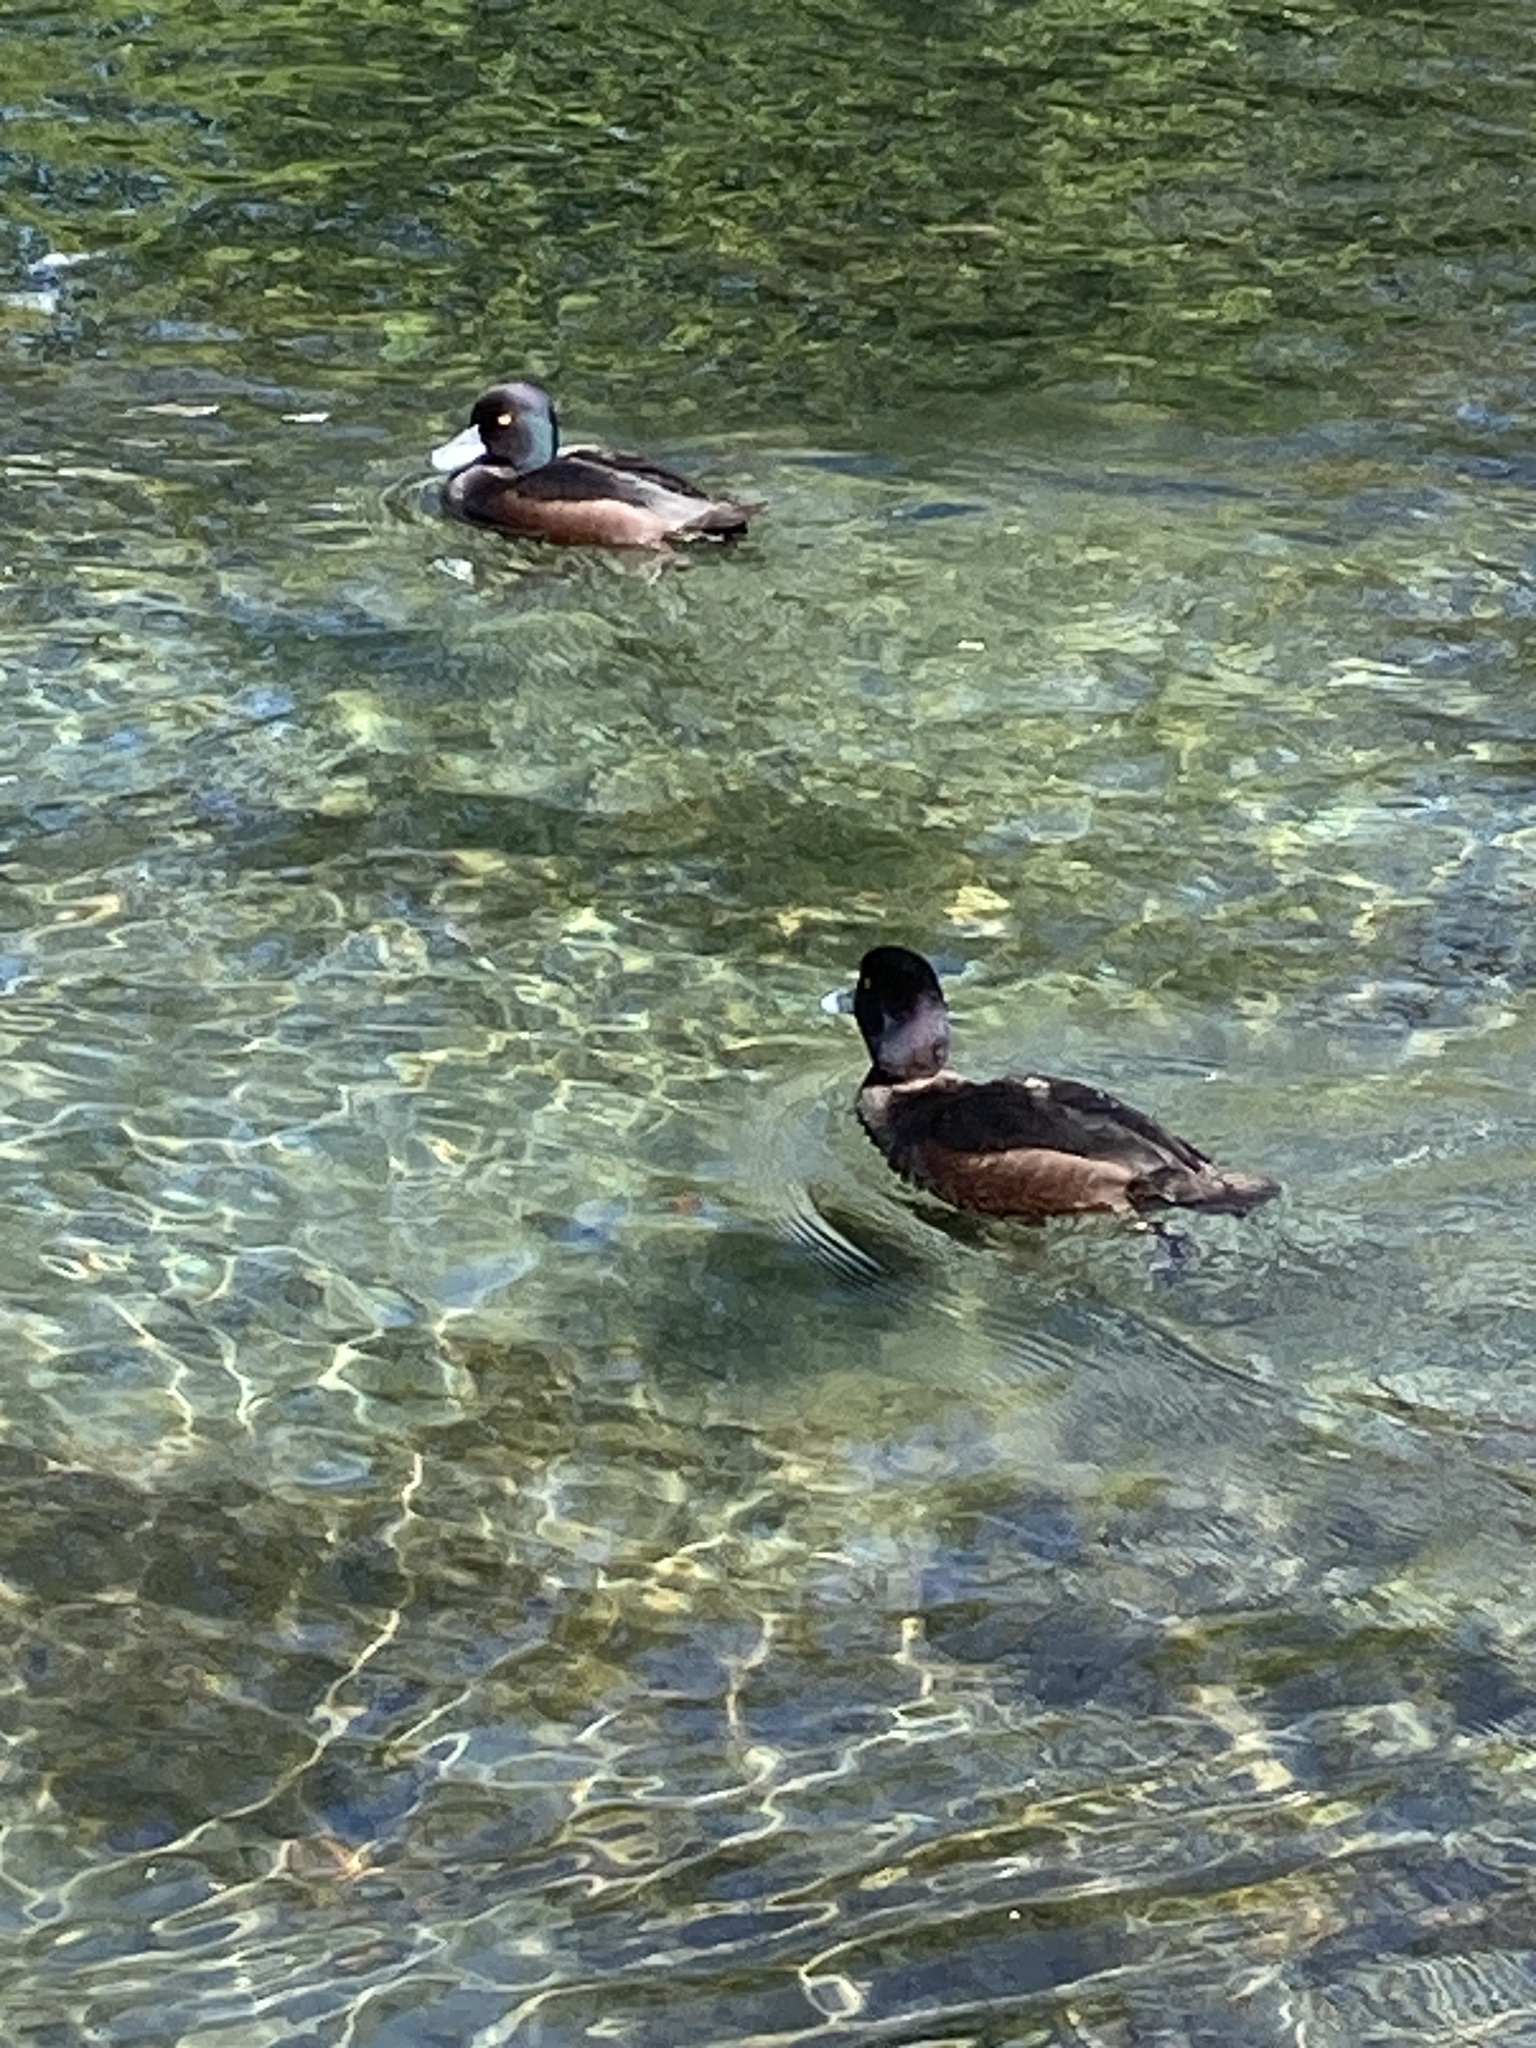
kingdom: Animalia
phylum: Chordata
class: Aves
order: Anseriformes
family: Anatidae
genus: Aythya
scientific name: Aythya novaeseelandiae
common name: New zealand scaup
